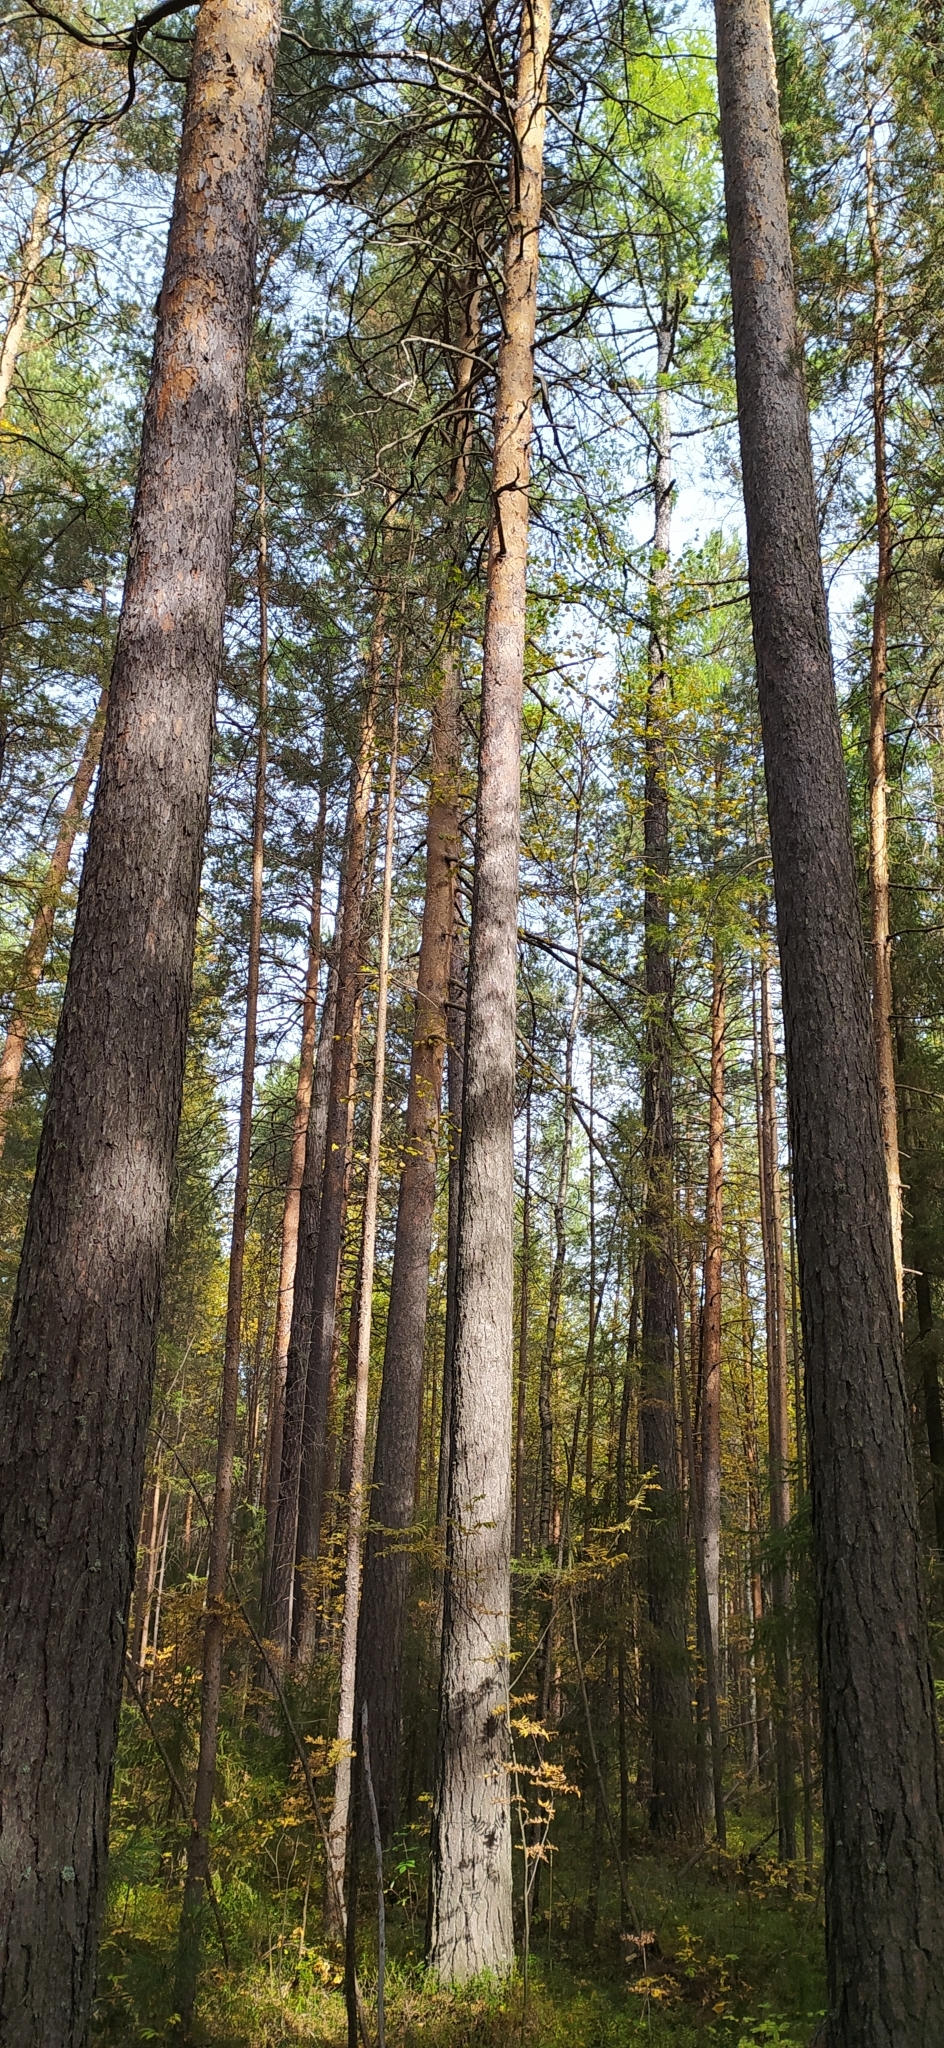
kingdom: Plantae
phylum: Tracheophyta
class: Pinopsida
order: Pinales
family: Pinaceae
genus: Pinus
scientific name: Pinus sylvestris
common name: Scots pine
